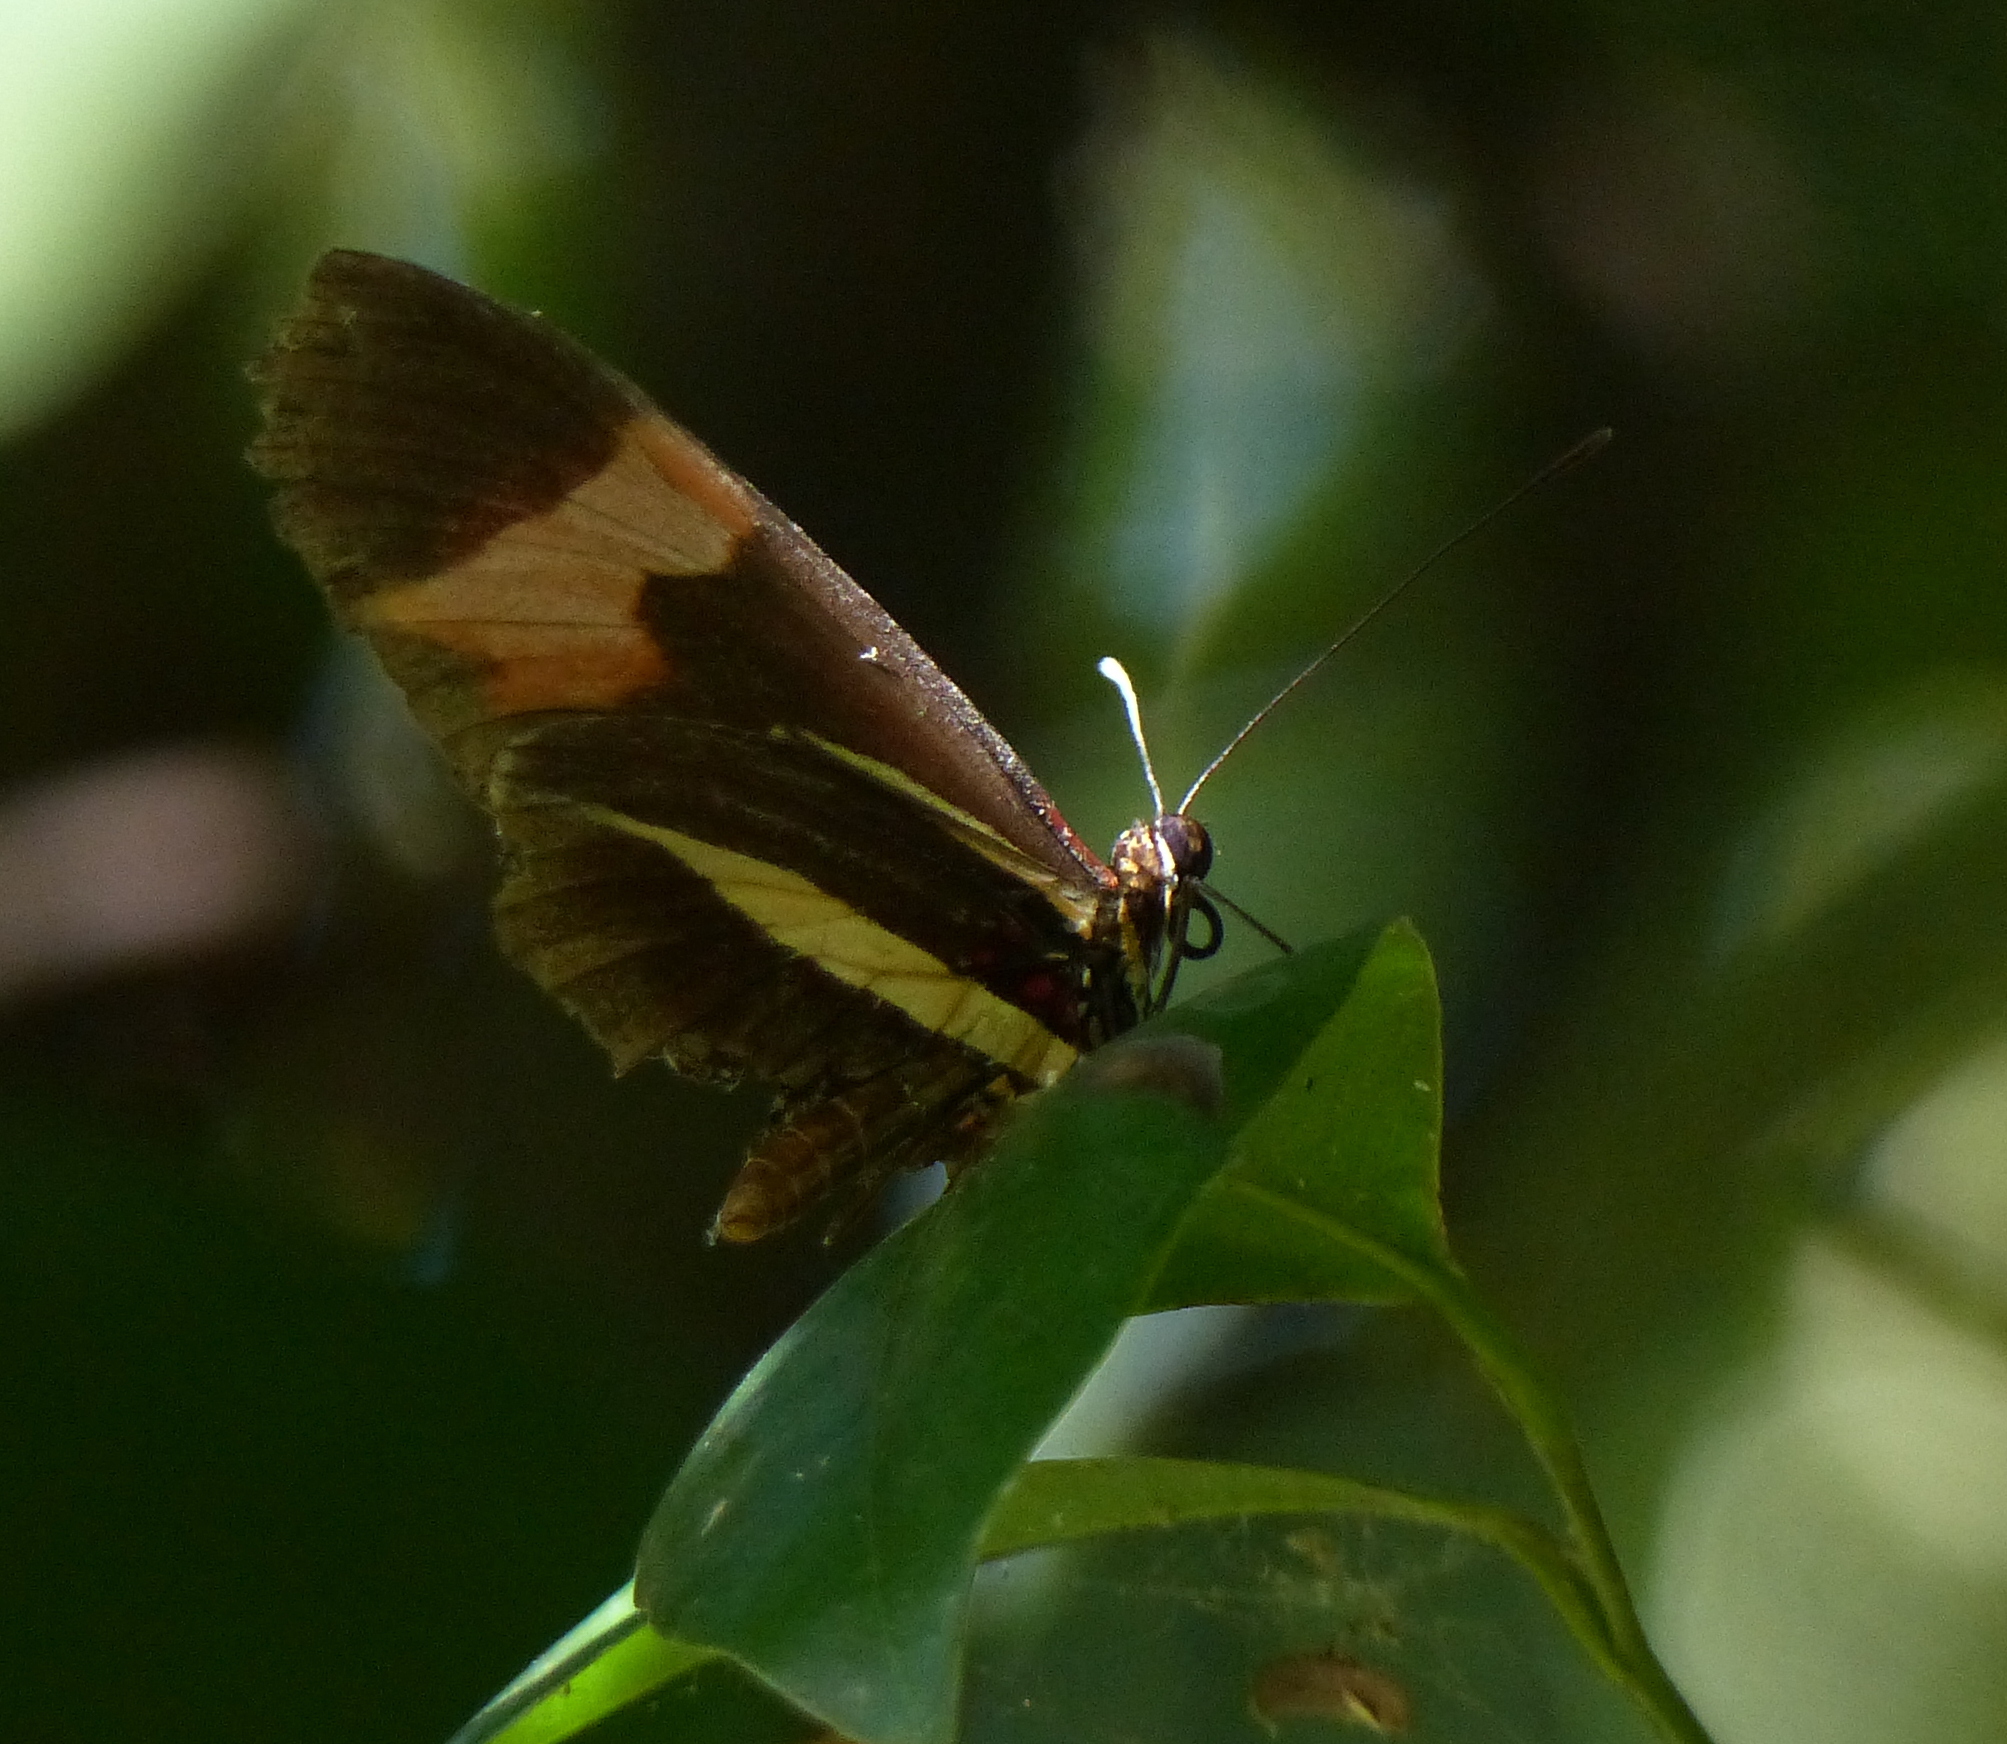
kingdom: Animalia
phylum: Arthropoda
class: Insecta
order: Lepidoptera
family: Nymphalidae
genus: Heliconius
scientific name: Heliconius erato
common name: Common patch longwing
